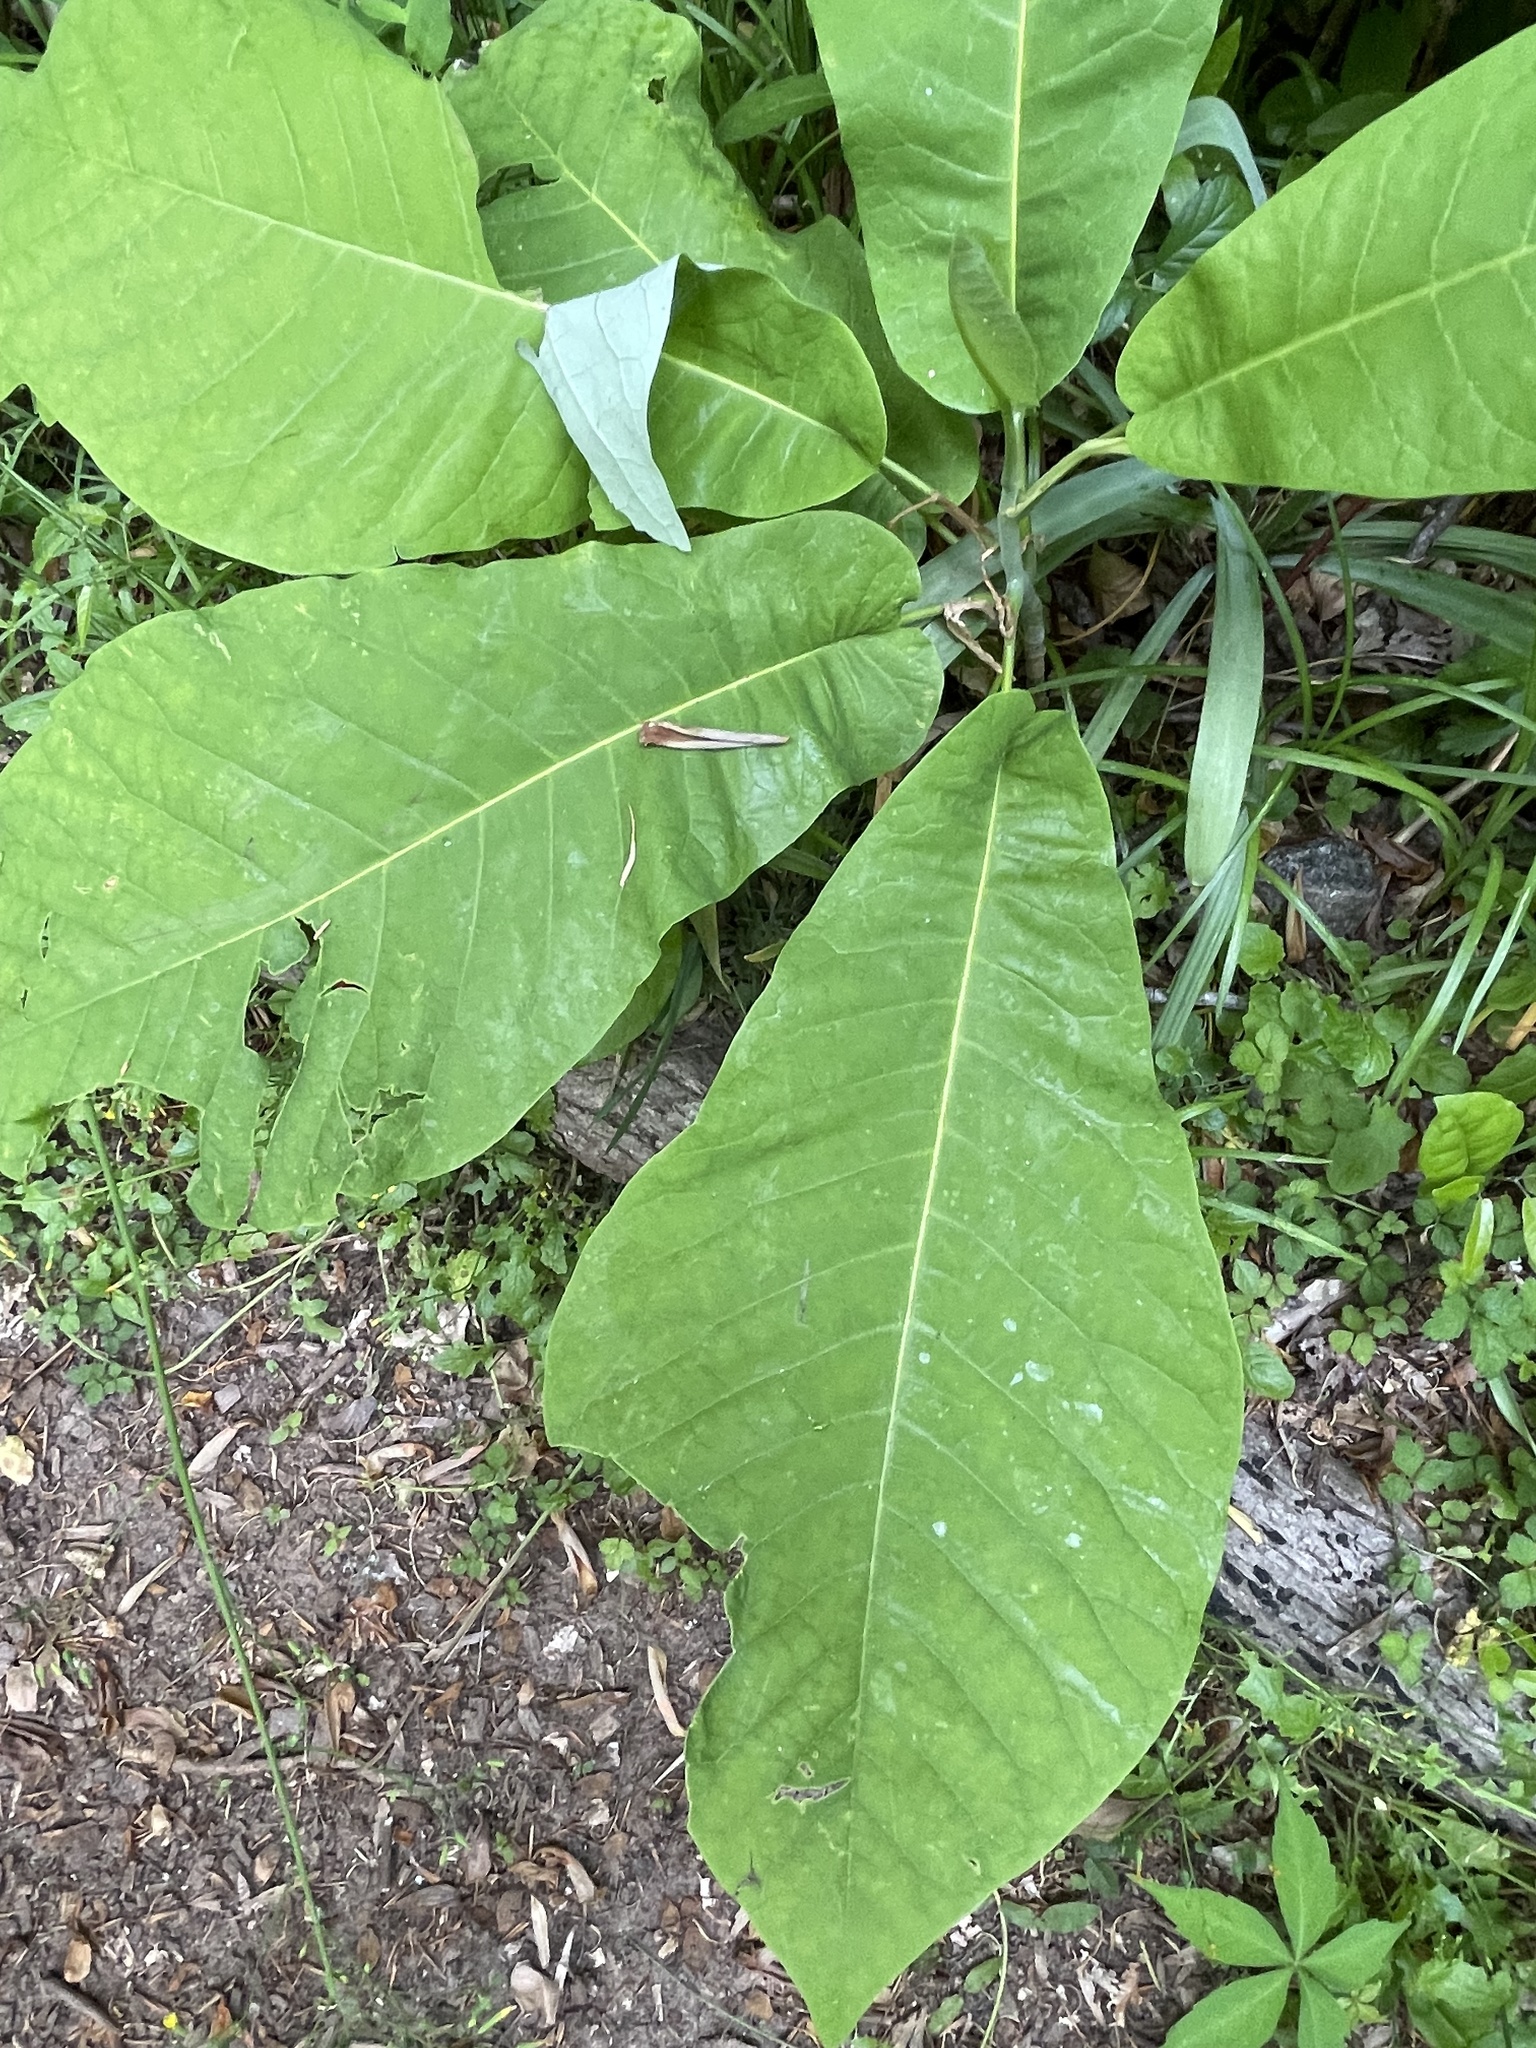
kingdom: Plantae
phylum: Tracheophyta
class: Magnoliopsida
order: Magnoliales
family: Magnoliaceae
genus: Magnolia
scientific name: Magnolia macrophylla
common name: Big-leaf magnolia
